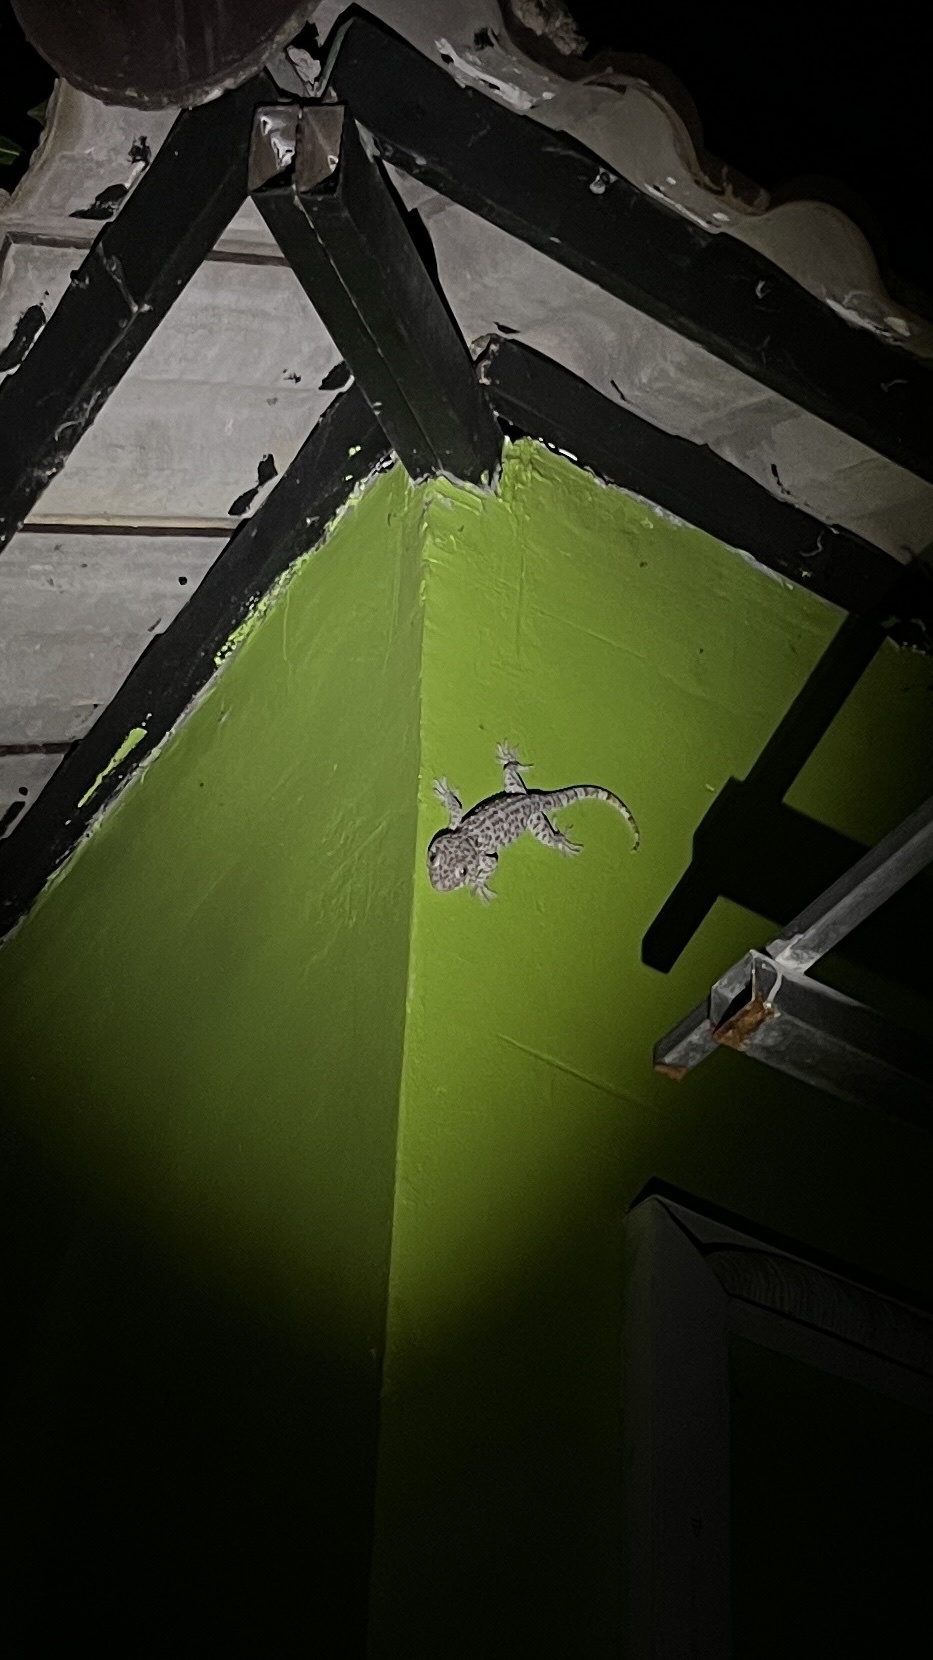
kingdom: Animalia
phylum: Chordata
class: Squamata
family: Gekkonidae
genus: Gekko
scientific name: Gekko gecko
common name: Tokay gecko
